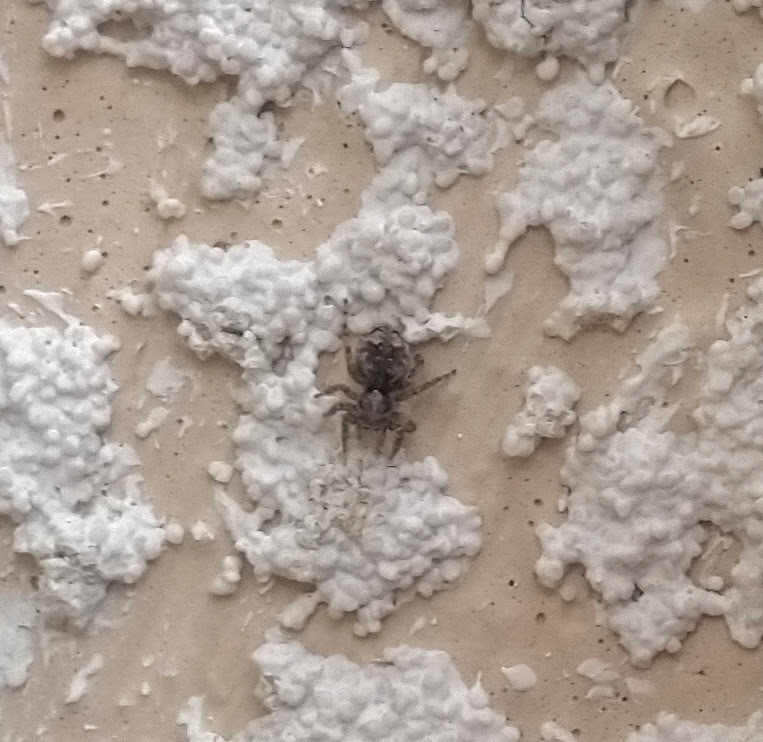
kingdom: Animalia
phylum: Arthropoda
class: Arachnida
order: Araneae
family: Salticidae
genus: Attulus
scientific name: Attulus fasciger
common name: Asiatic wall jumping spider
